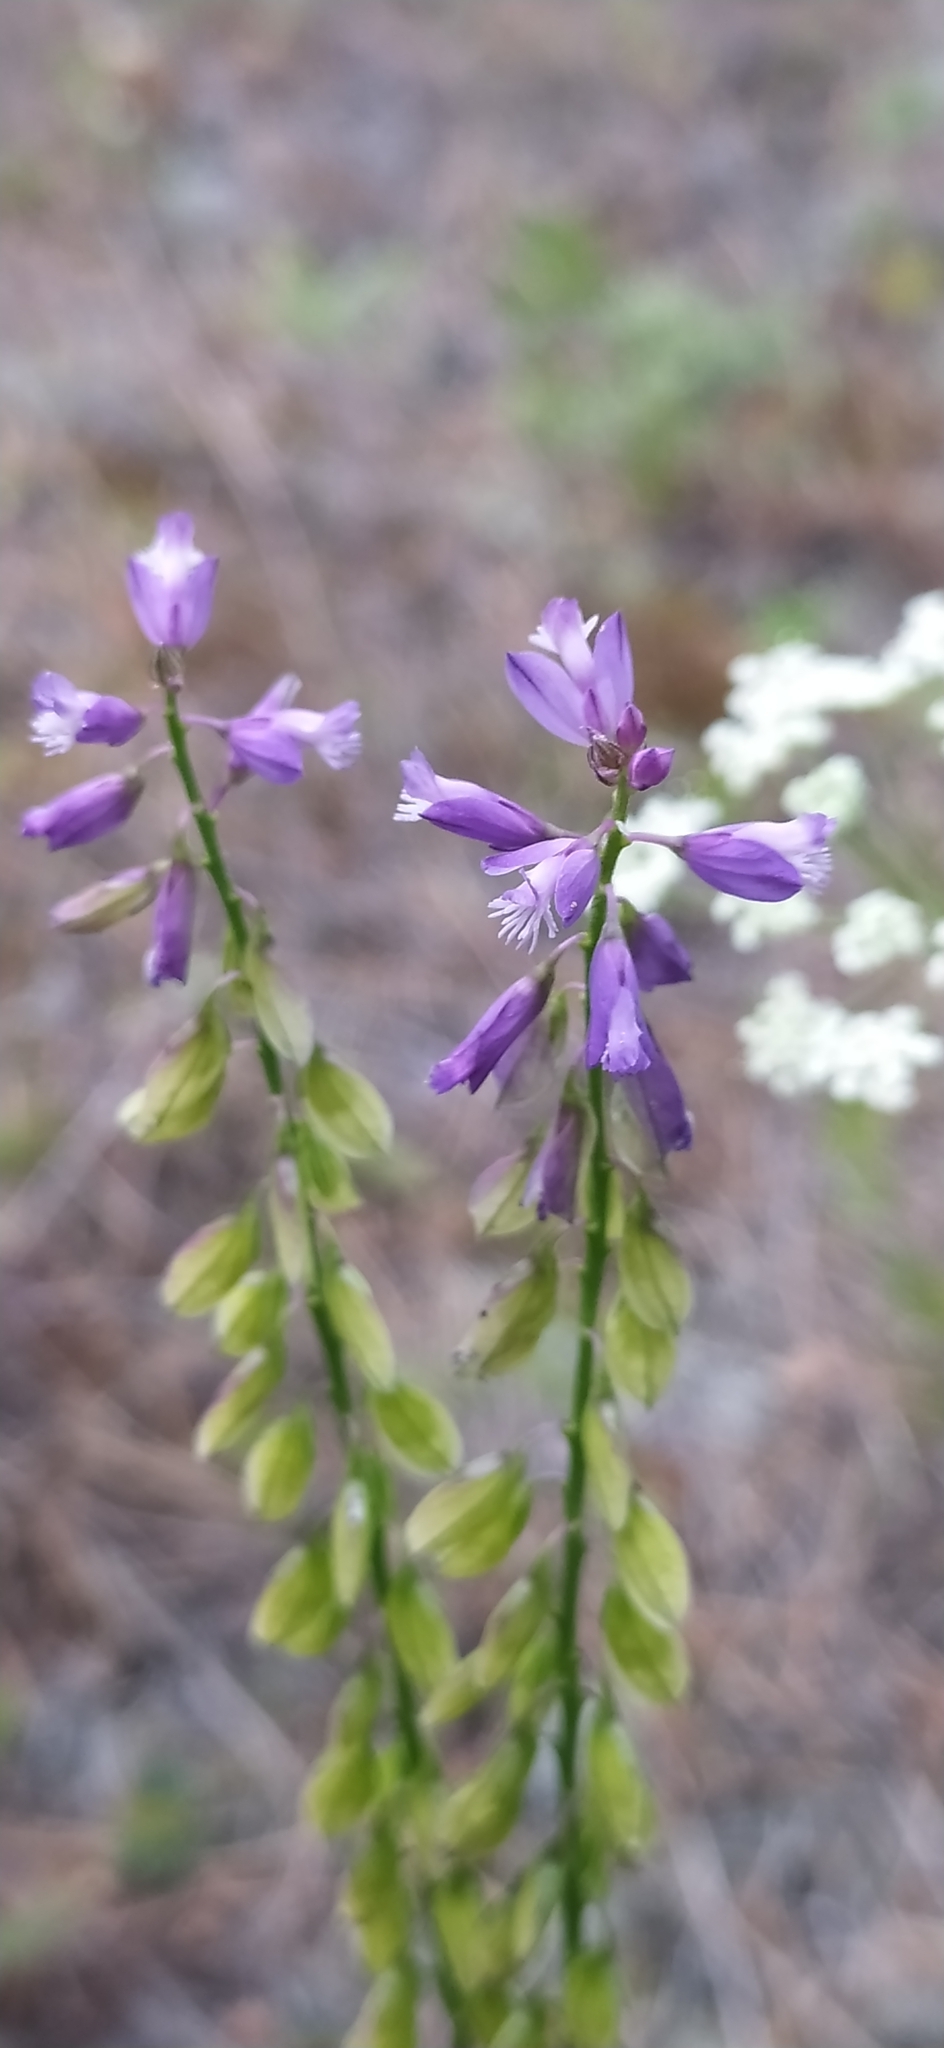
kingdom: Plantae
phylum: Tracheophyta
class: Magnoliopsida
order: Fabales
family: Polygalaceae
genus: Polygala
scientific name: Polygala comosa
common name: Tufted milkwort
